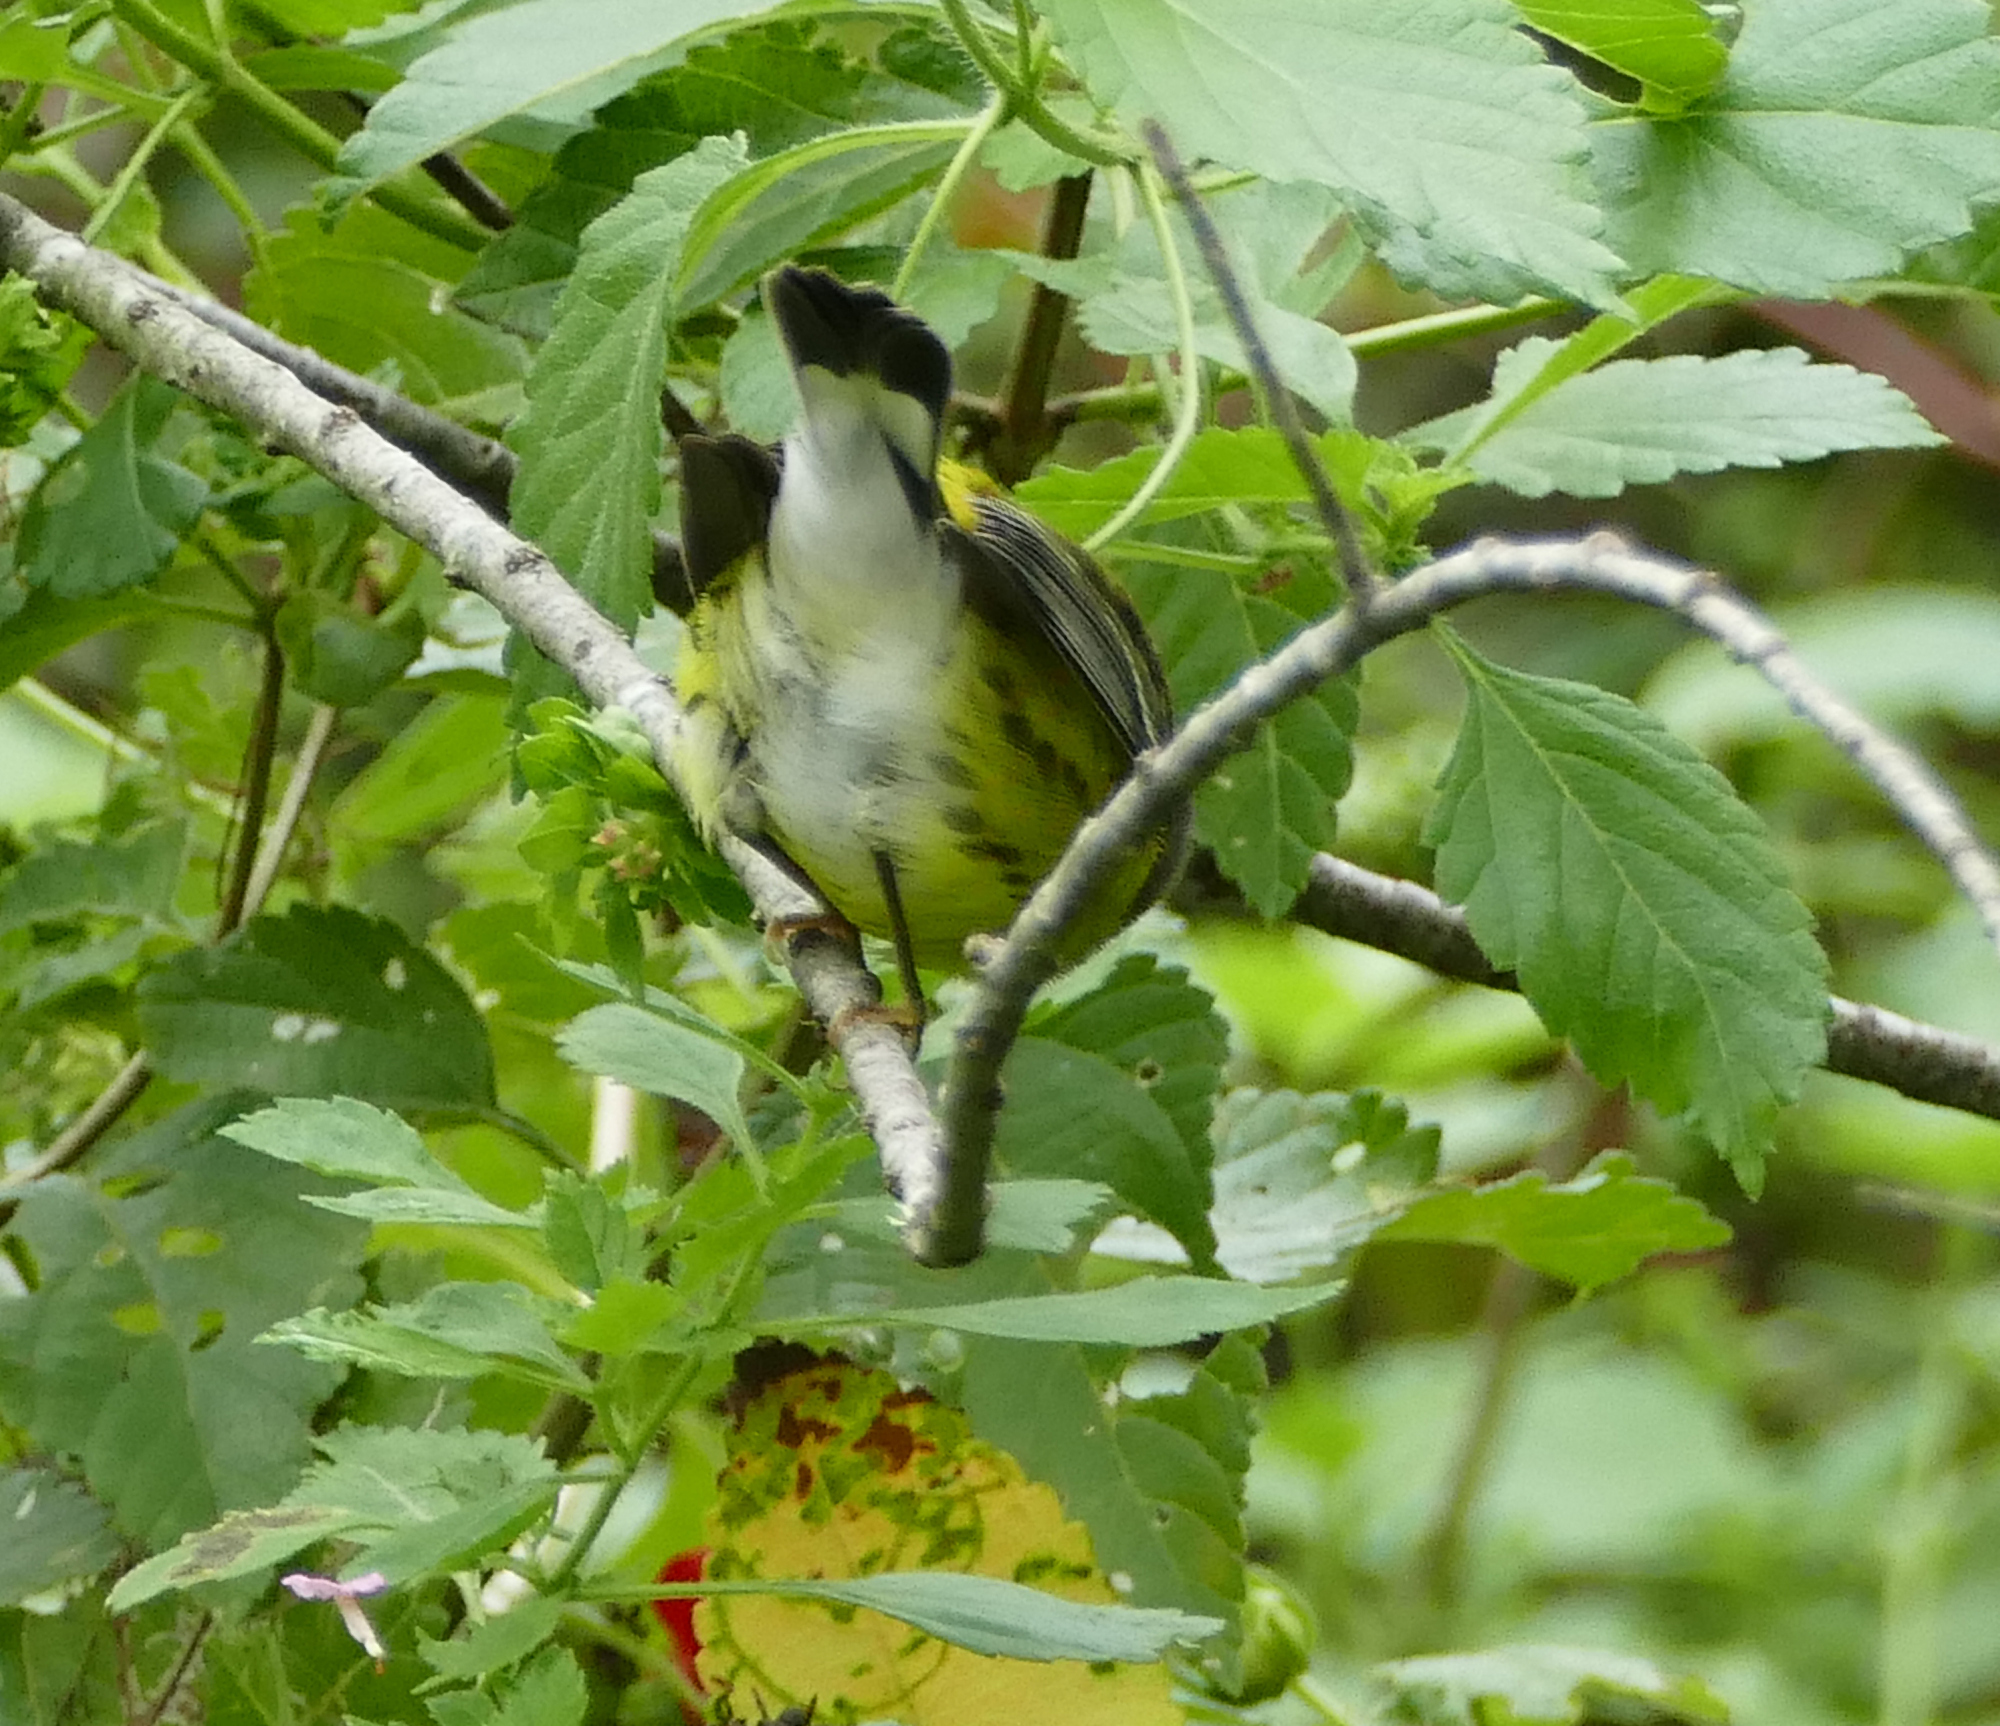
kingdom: Animalia
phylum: Chordata
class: Aves
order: Passeriformes
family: Parulidae
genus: Setophaga
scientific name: Setophaga magnolia
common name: Magnolia warbler
